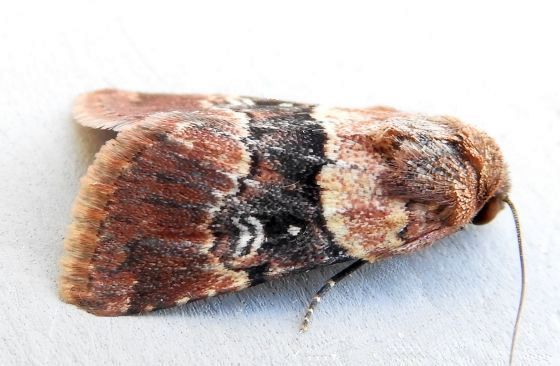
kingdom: Animalia
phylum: Arthropoda
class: Insecta
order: Lepidoptera
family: Noctuidae
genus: Properigea
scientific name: Properigea continens
